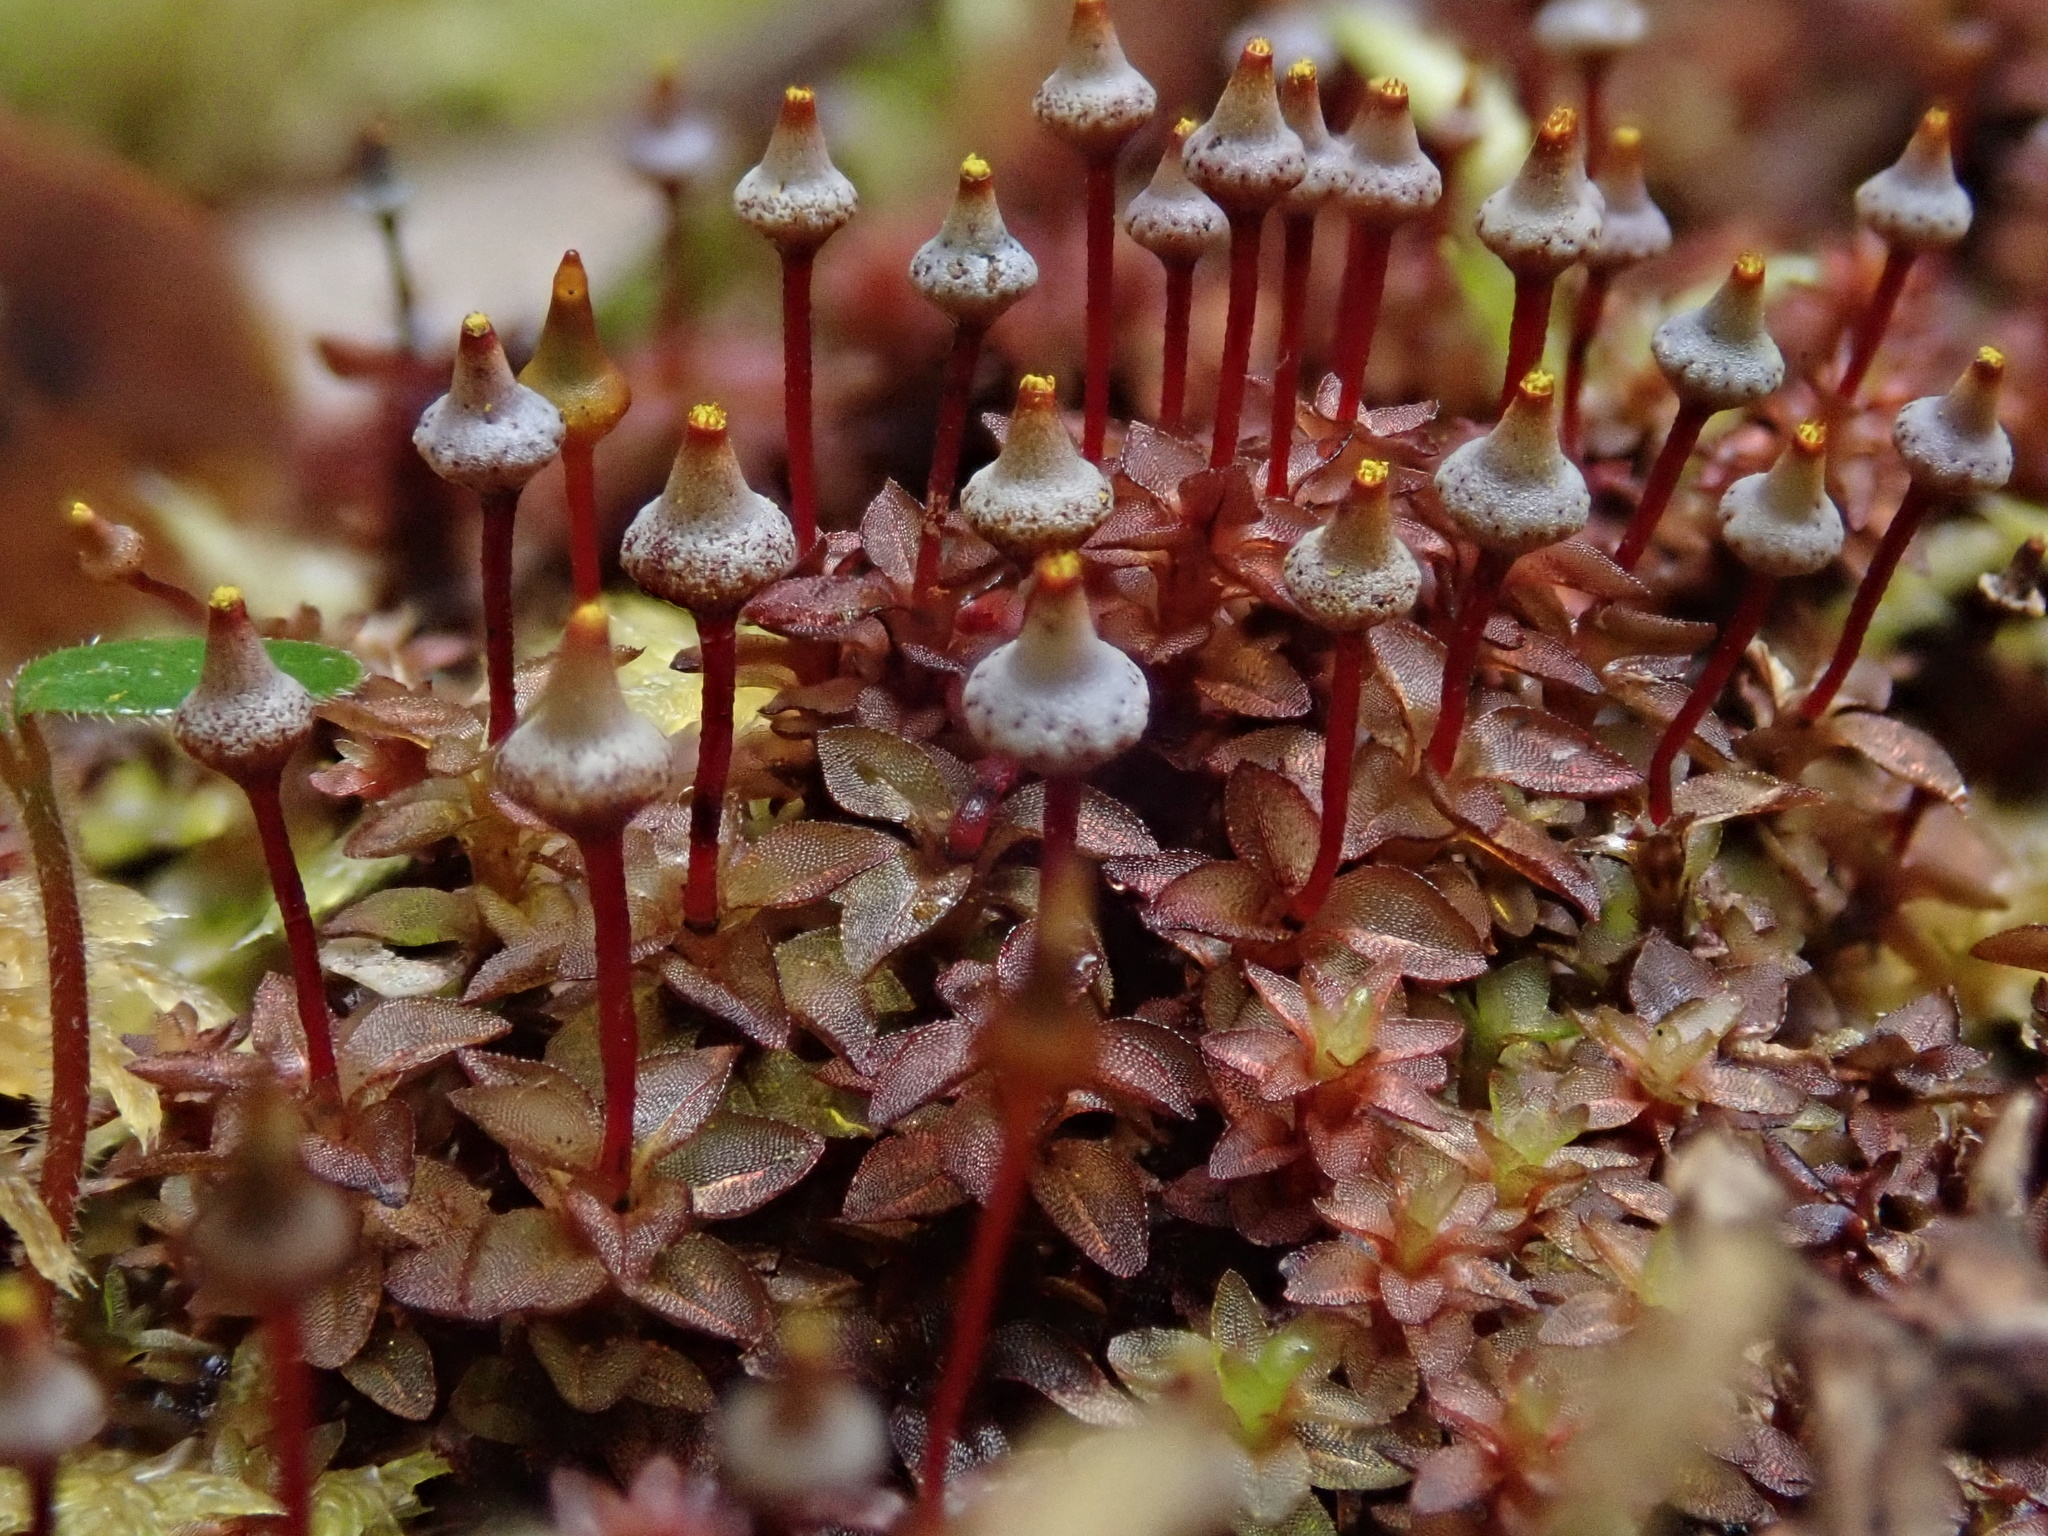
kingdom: Plantae
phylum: Bryophyta
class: Bryopsida
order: Splachnales
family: Splachnaceae
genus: Tayloria
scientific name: Tayloria gunnii
